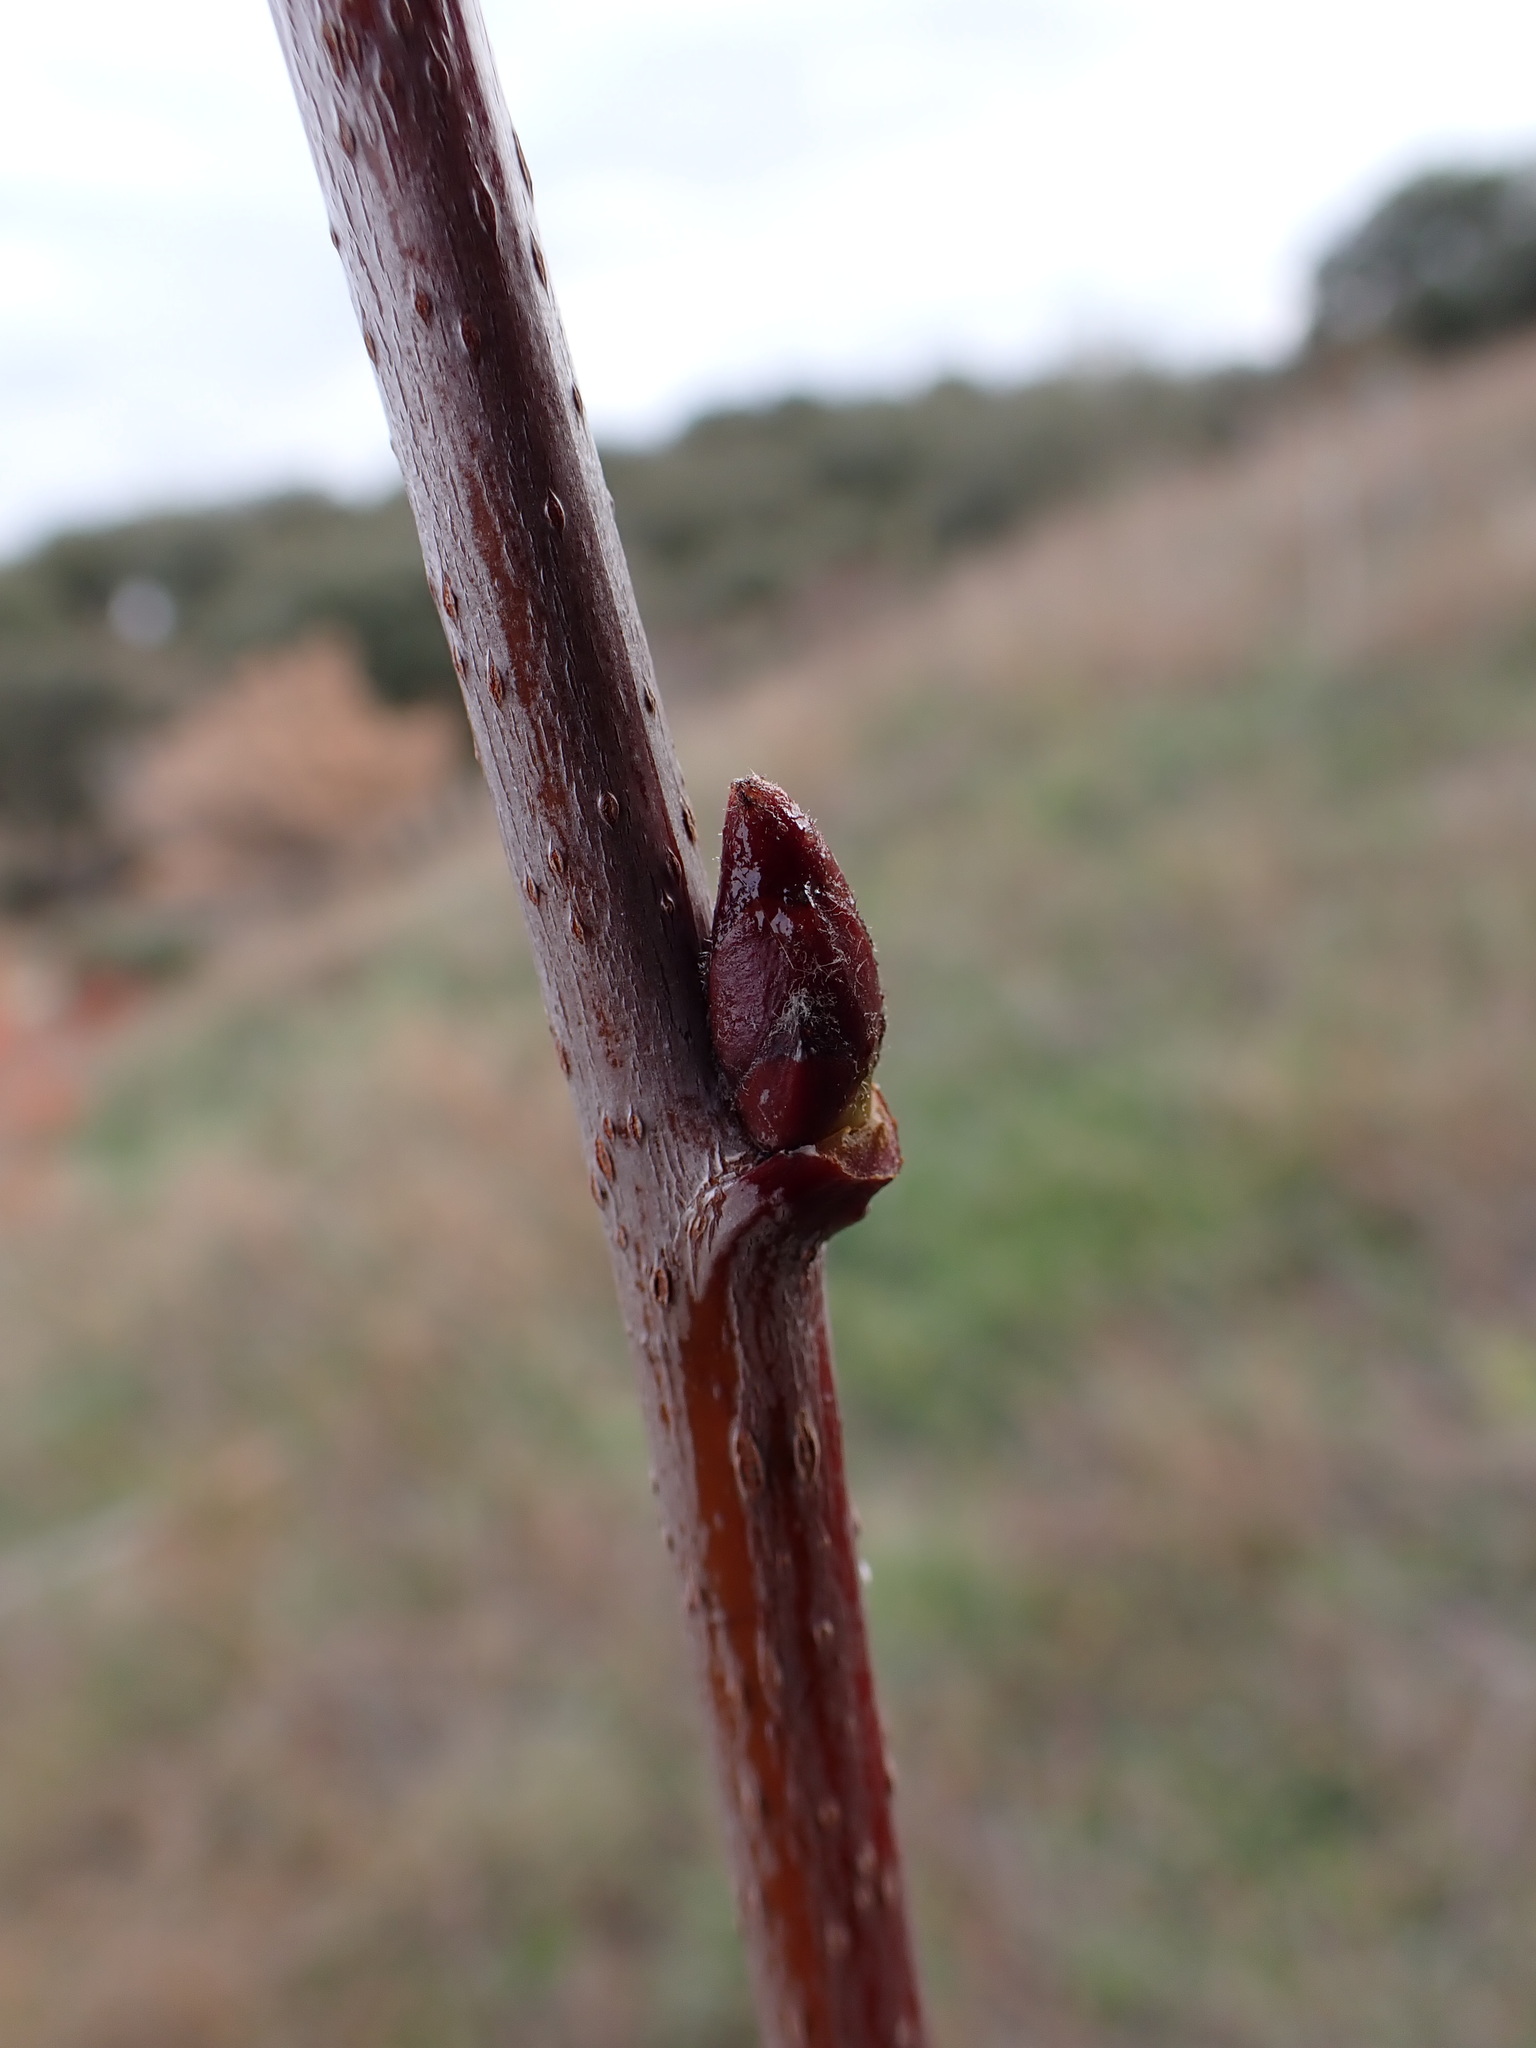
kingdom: Plantae
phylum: Tracheophyta
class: Magnoliopsida
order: Rosales
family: Rosaceae
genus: Cormus
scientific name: Cormus domestica
